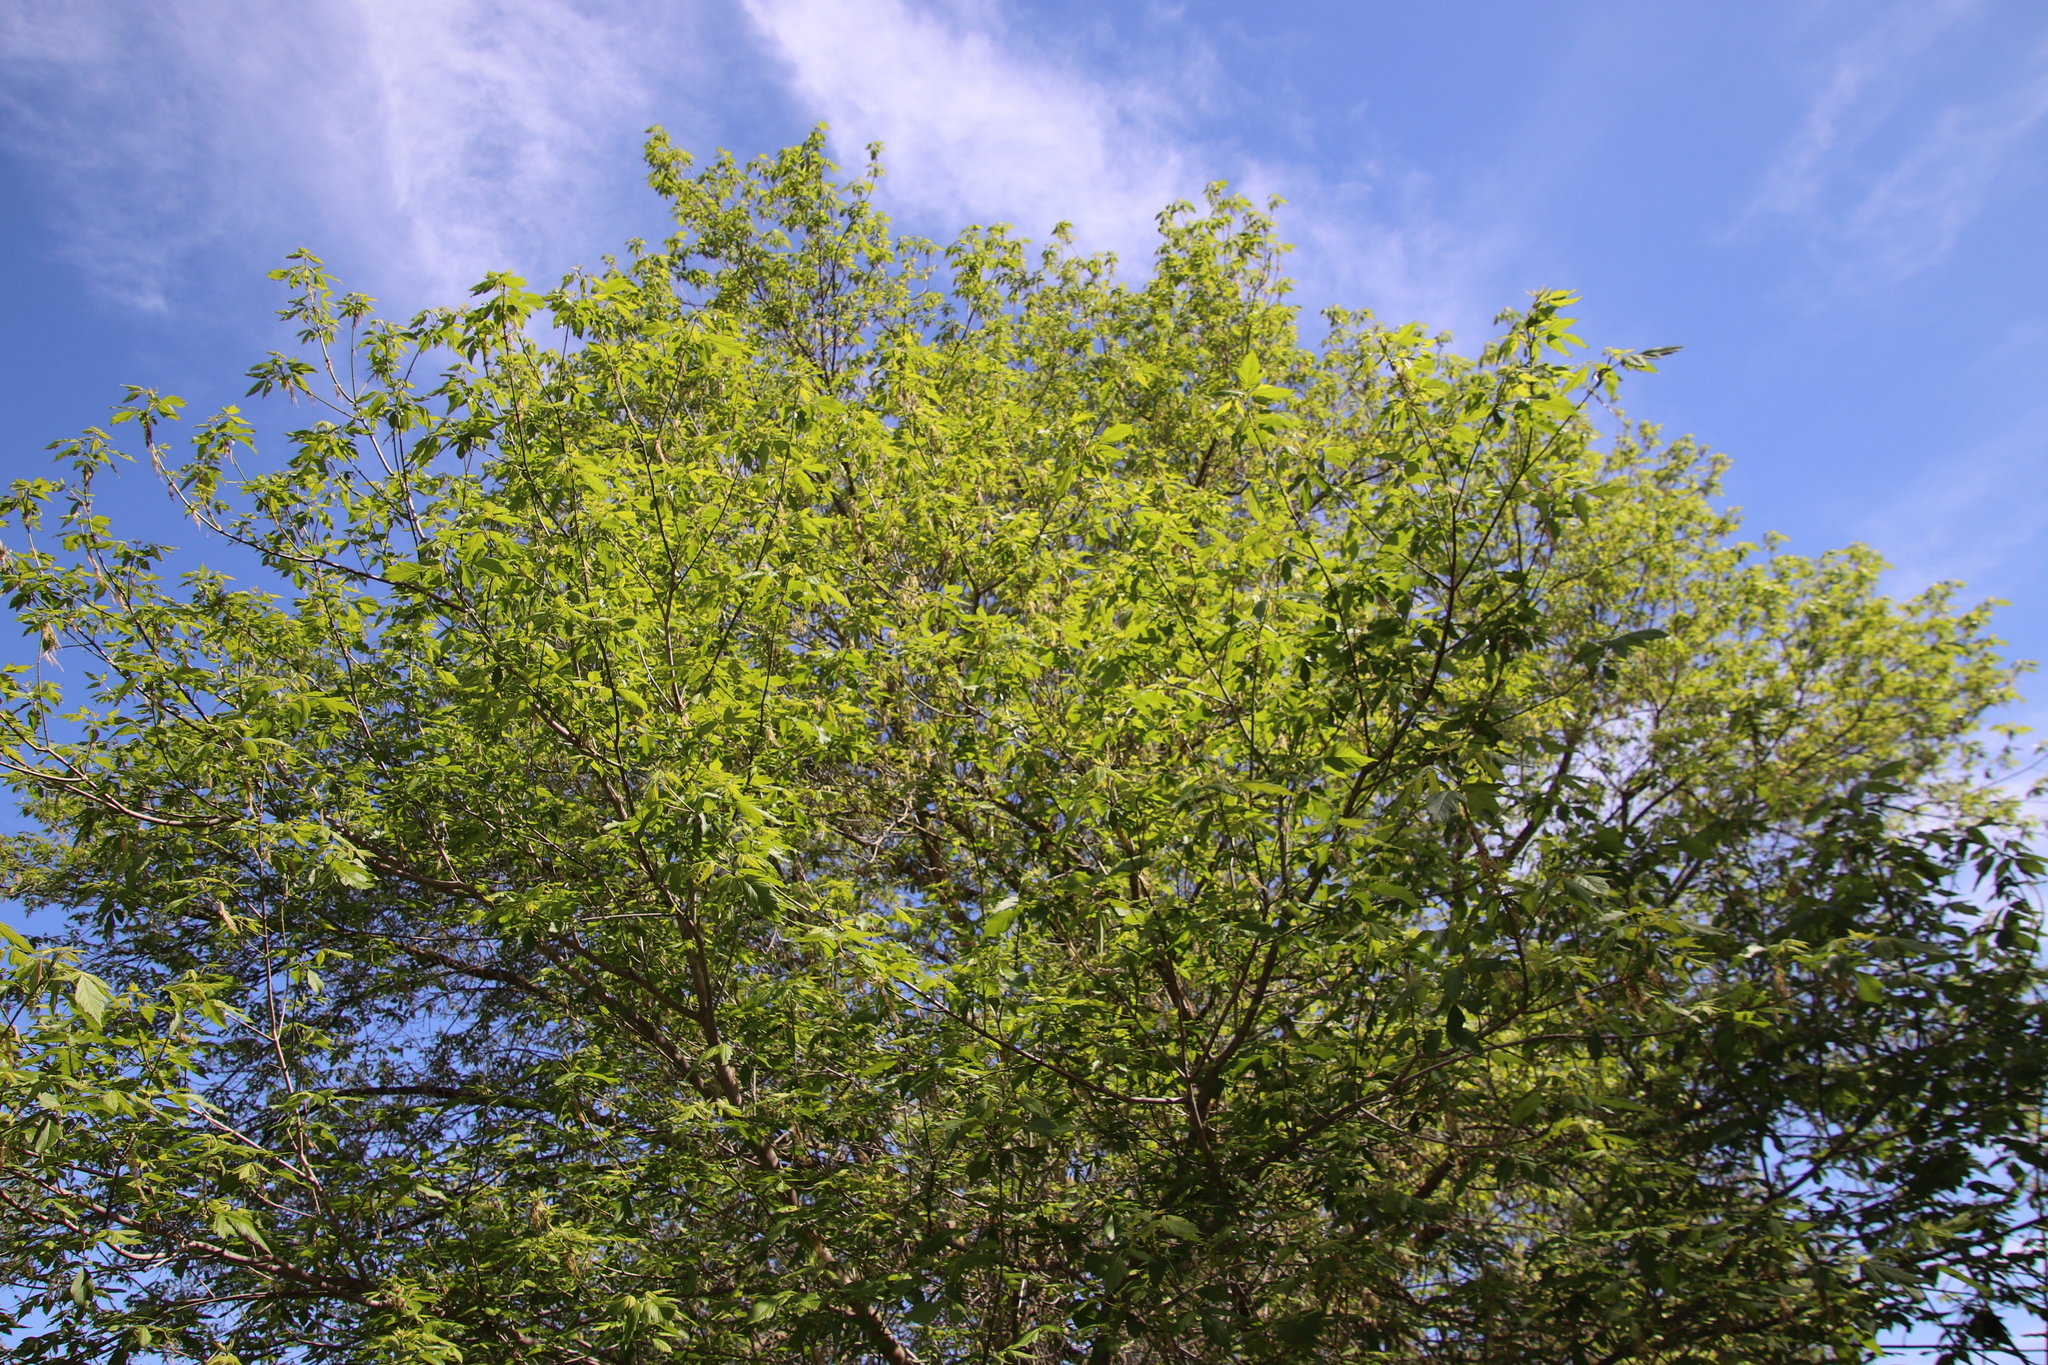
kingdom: Plantae
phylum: Tracheophyta
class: Magnoliopsida
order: Sapindales
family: Sapindaceae
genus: Acer
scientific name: Acer negundo
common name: Ashleaf maple
